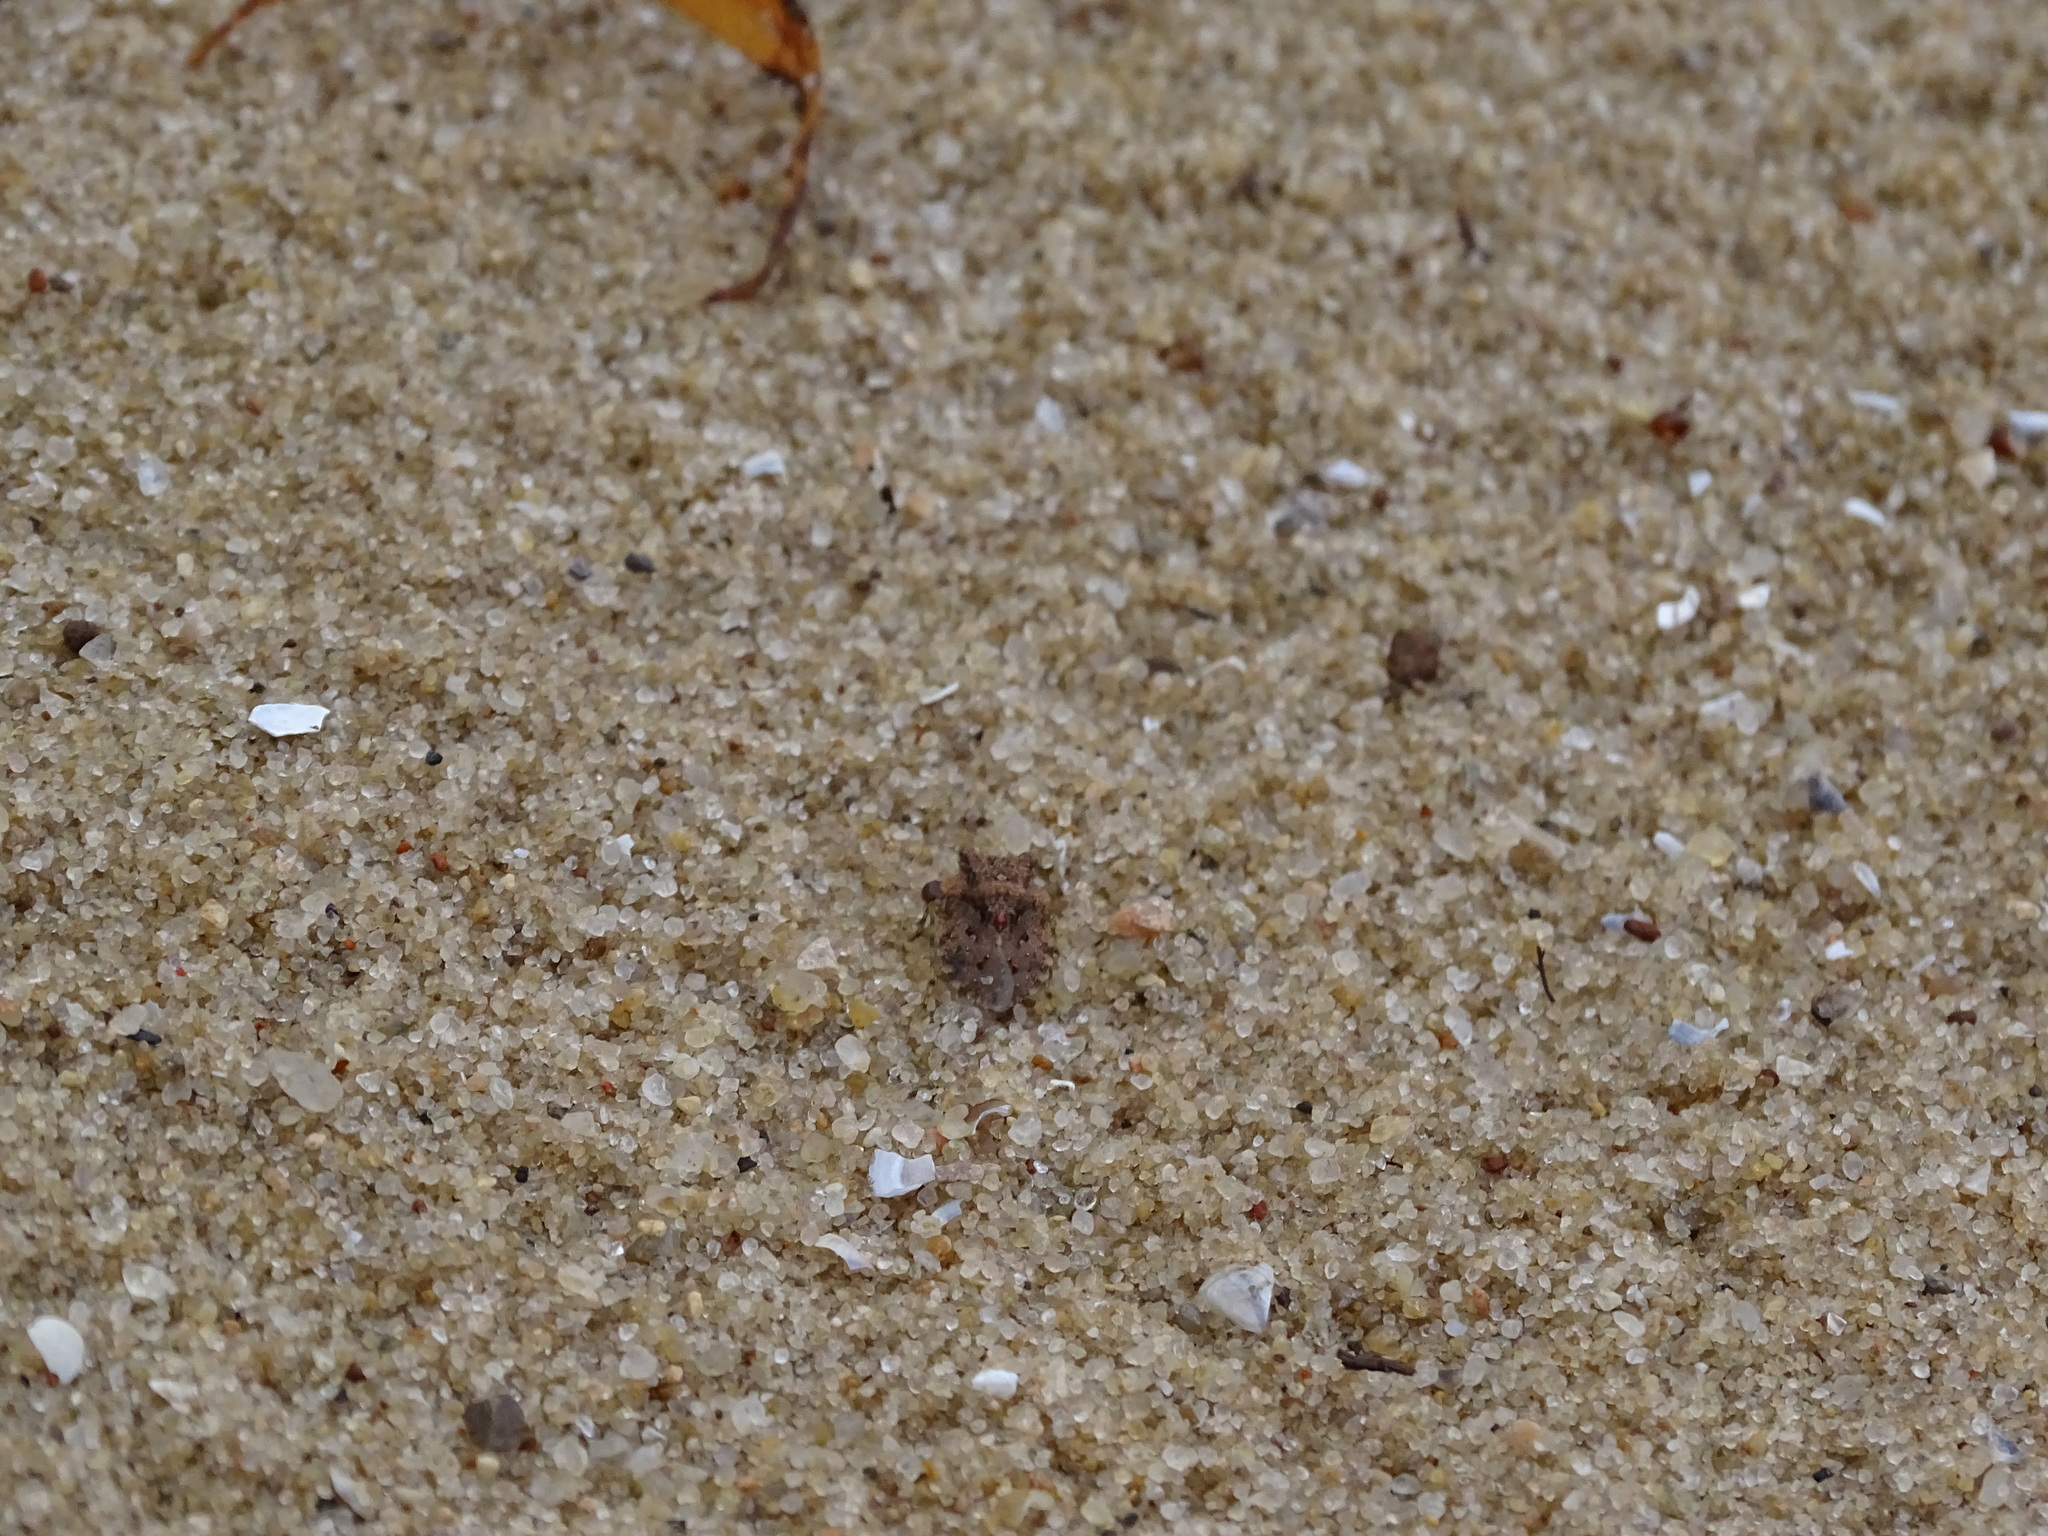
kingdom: Animalia
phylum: Arthropoda
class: Insecta
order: Hemiptera
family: Gelastocoridae
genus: Gelastocoris
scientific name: Gelastocoris oculatus
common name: Toad bug
